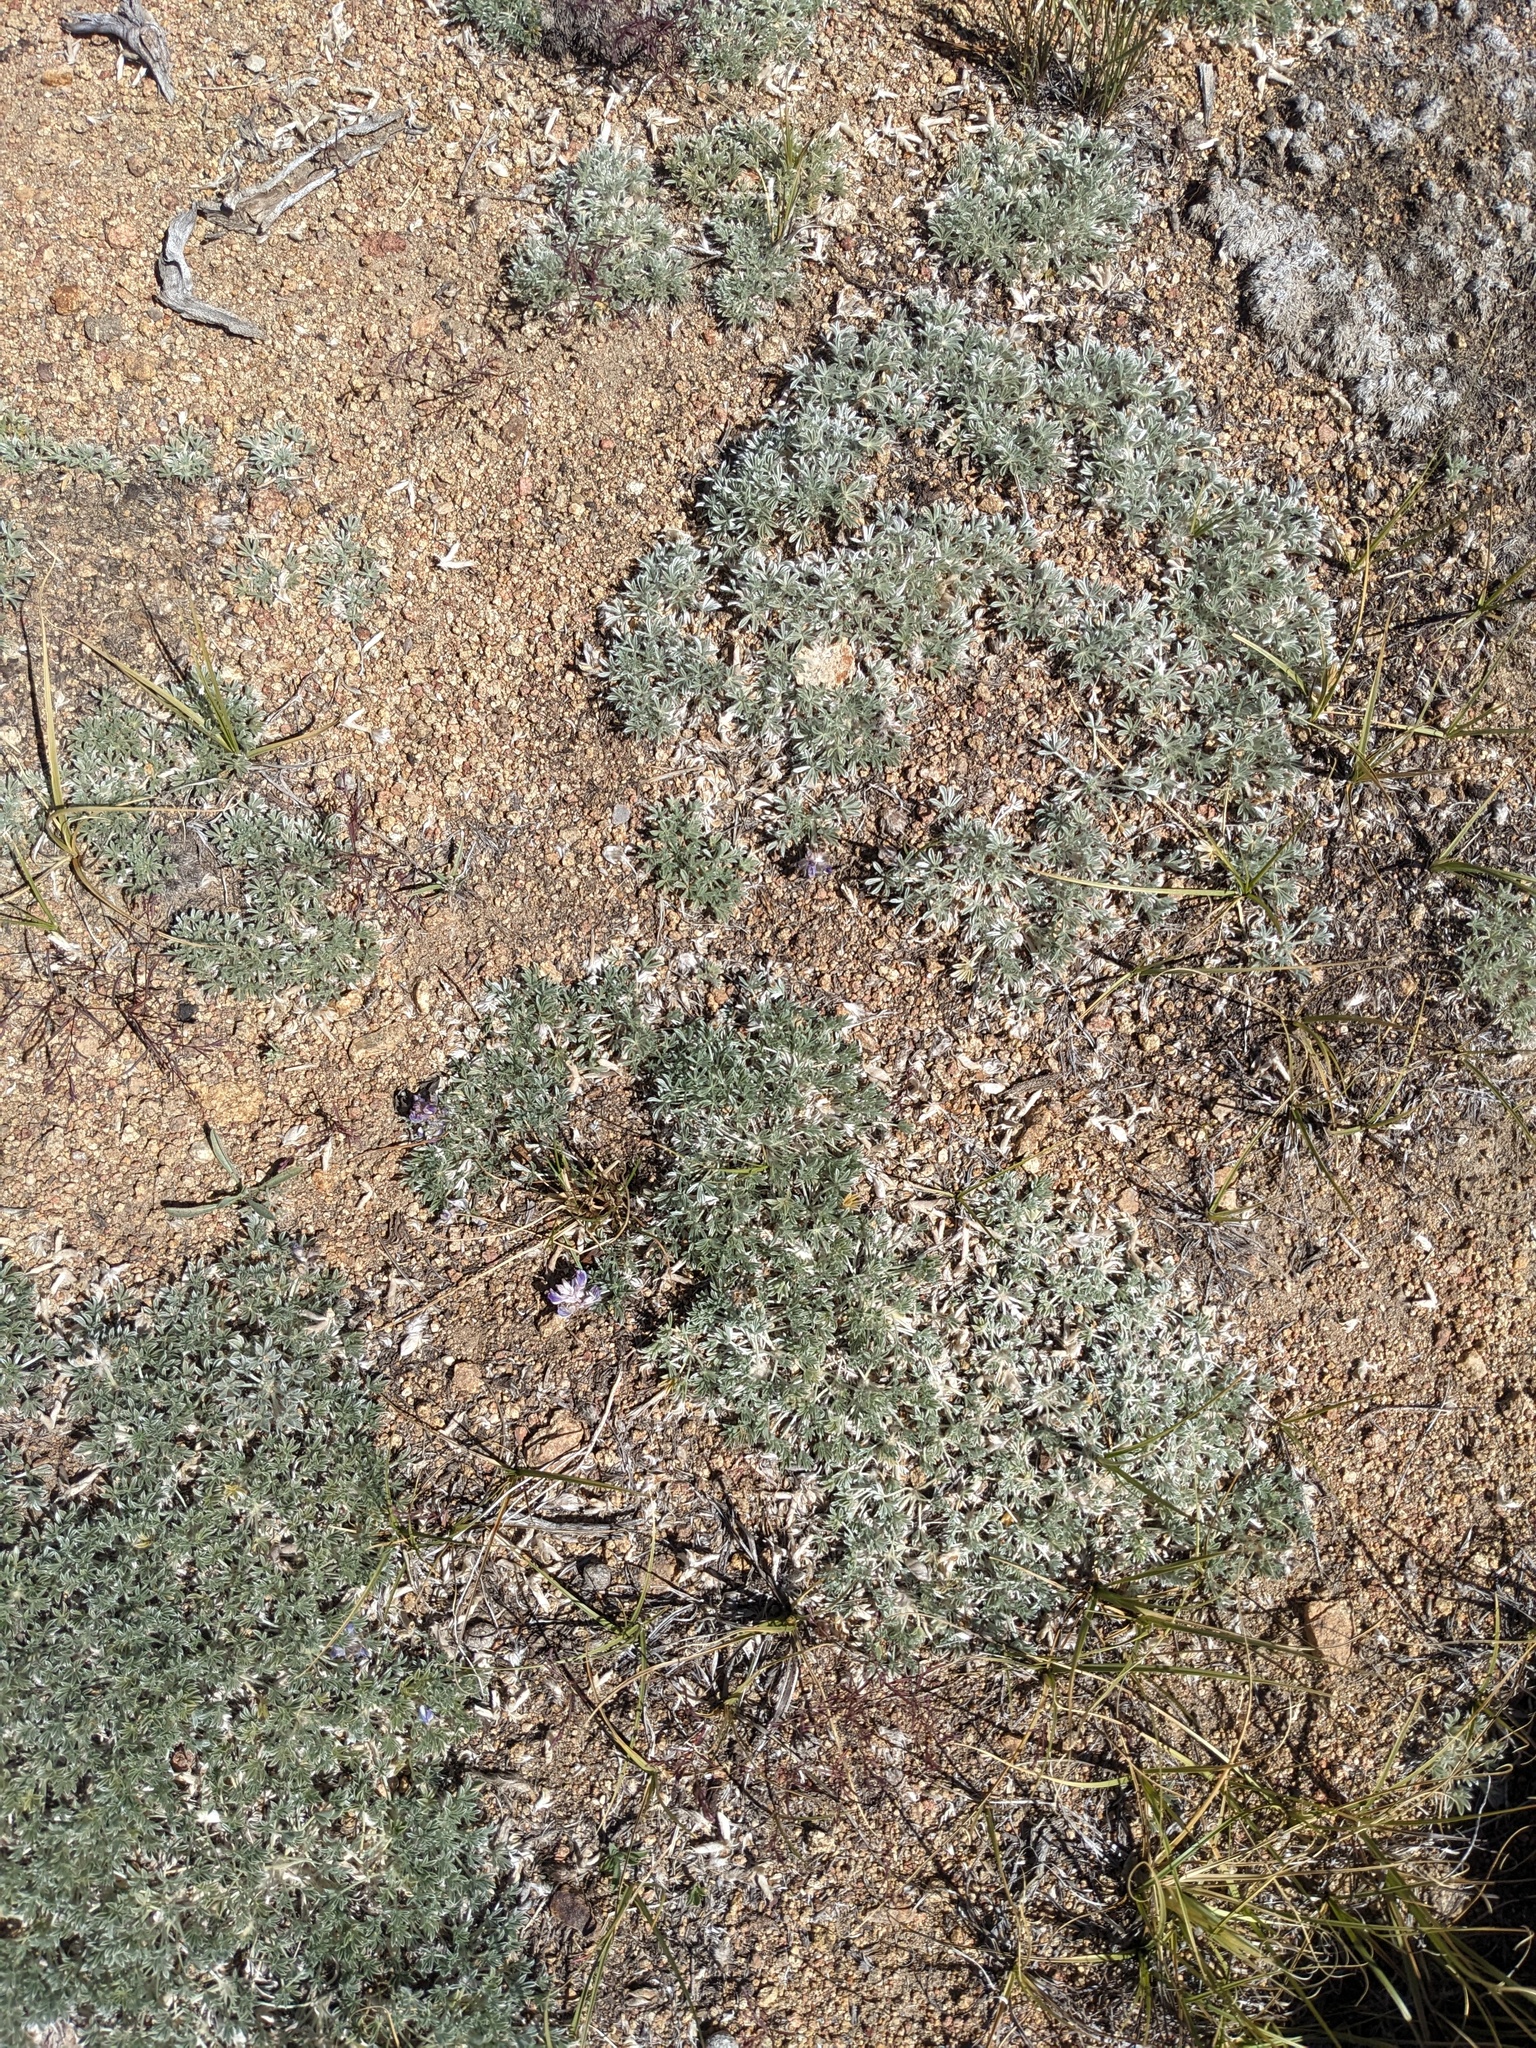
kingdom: Plantae
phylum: Tracheophyta
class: Magnoliopsida
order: Fabales
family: Fabaceae
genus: Lupinus
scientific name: Lupinus breweri
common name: Brewer's lupine
